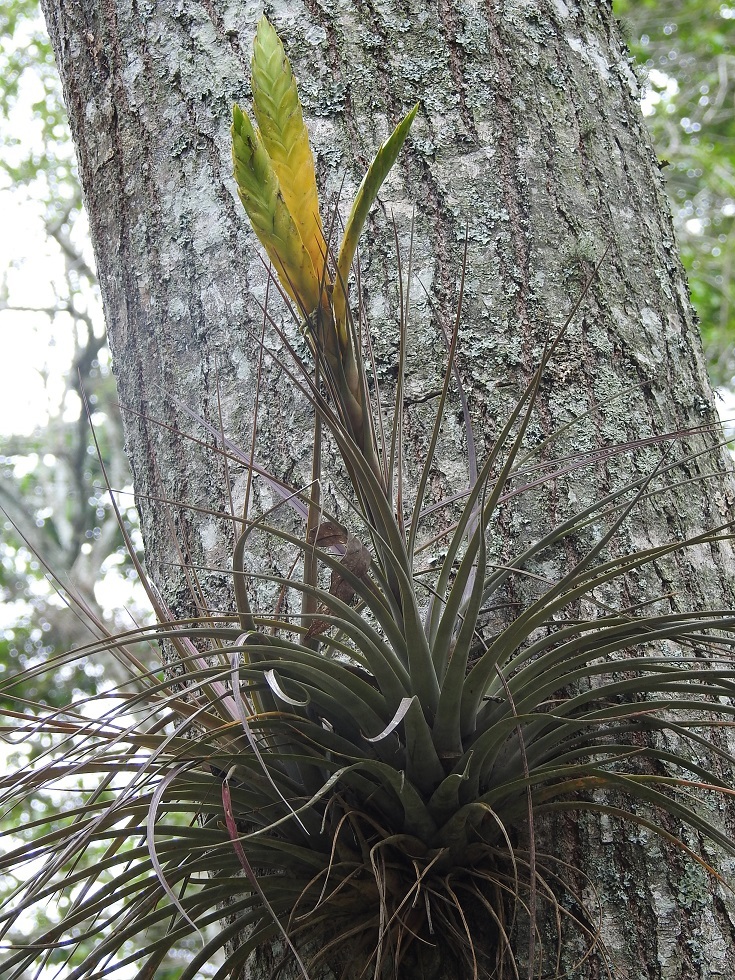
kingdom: Plantae
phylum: Tracheophyta
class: Liliopsida
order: Poales
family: Bromeliaceae
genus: Tillandsia
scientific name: Tillandsia flavobracteata
